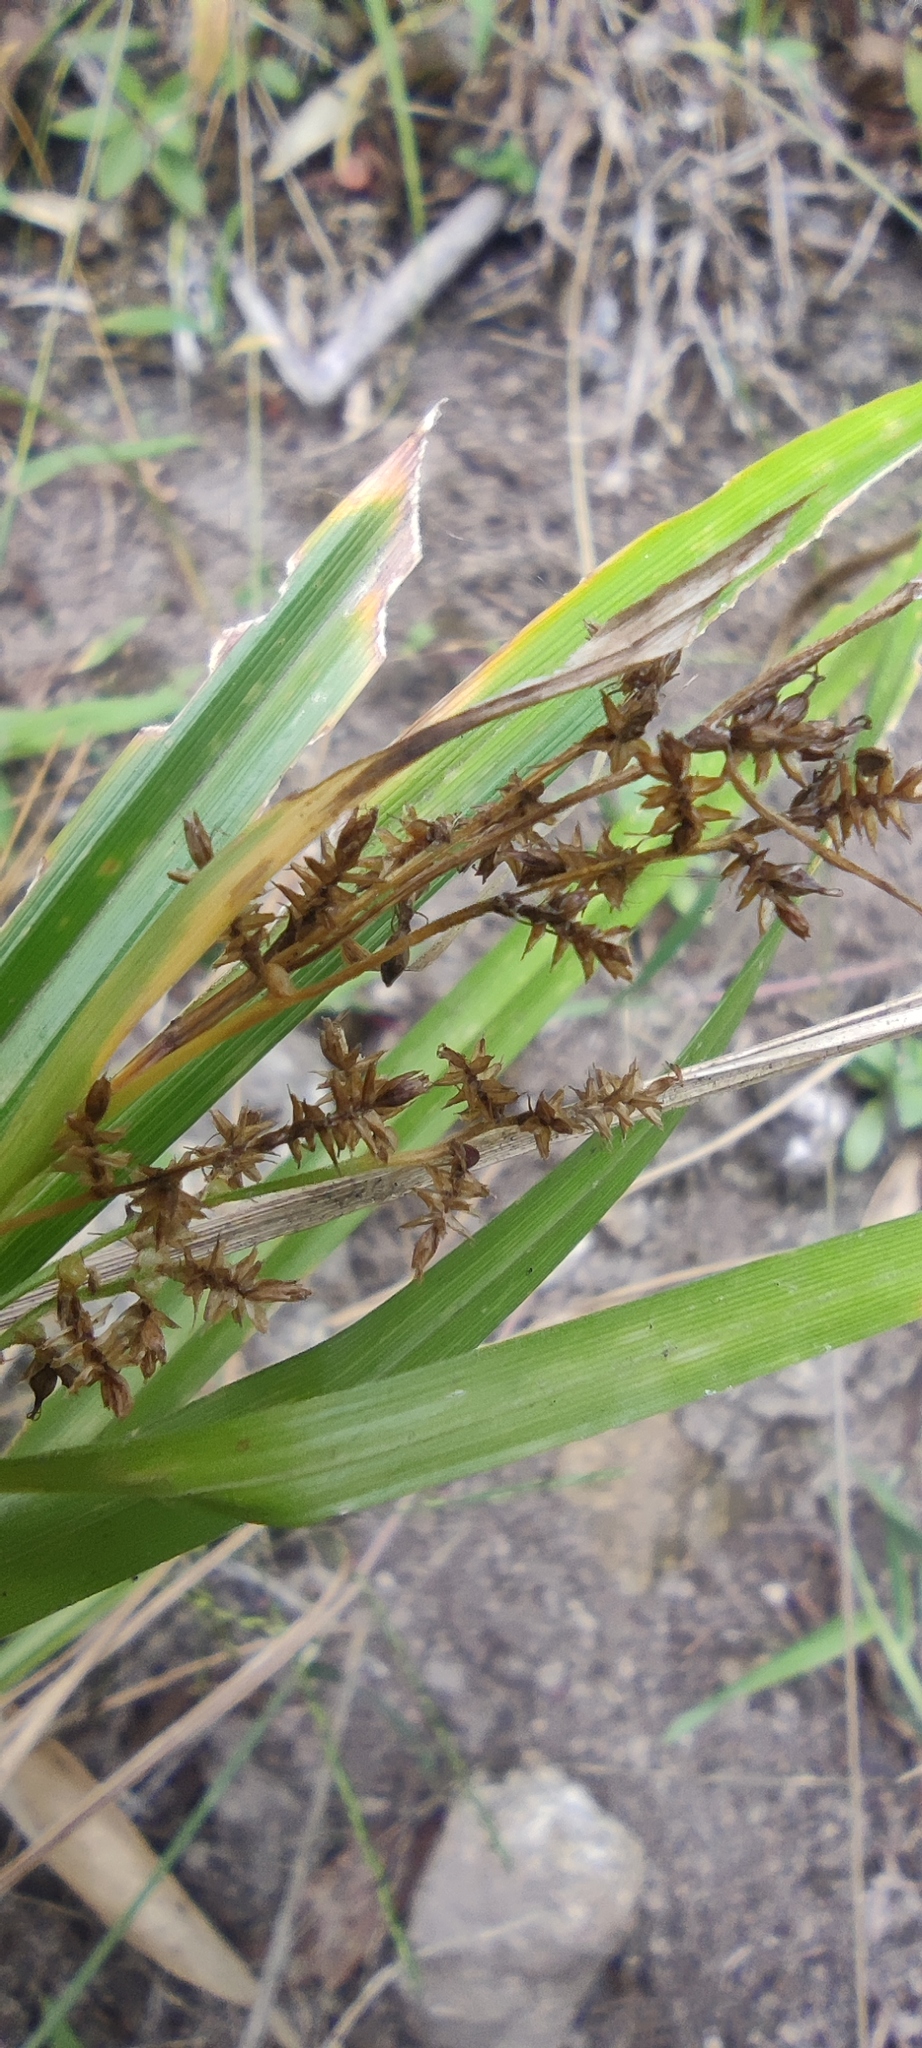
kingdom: Plantae
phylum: Tracheophyta
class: Liliopsida
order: Poales
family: Cyperaceae
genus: Carex
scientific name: Carex polystachya
